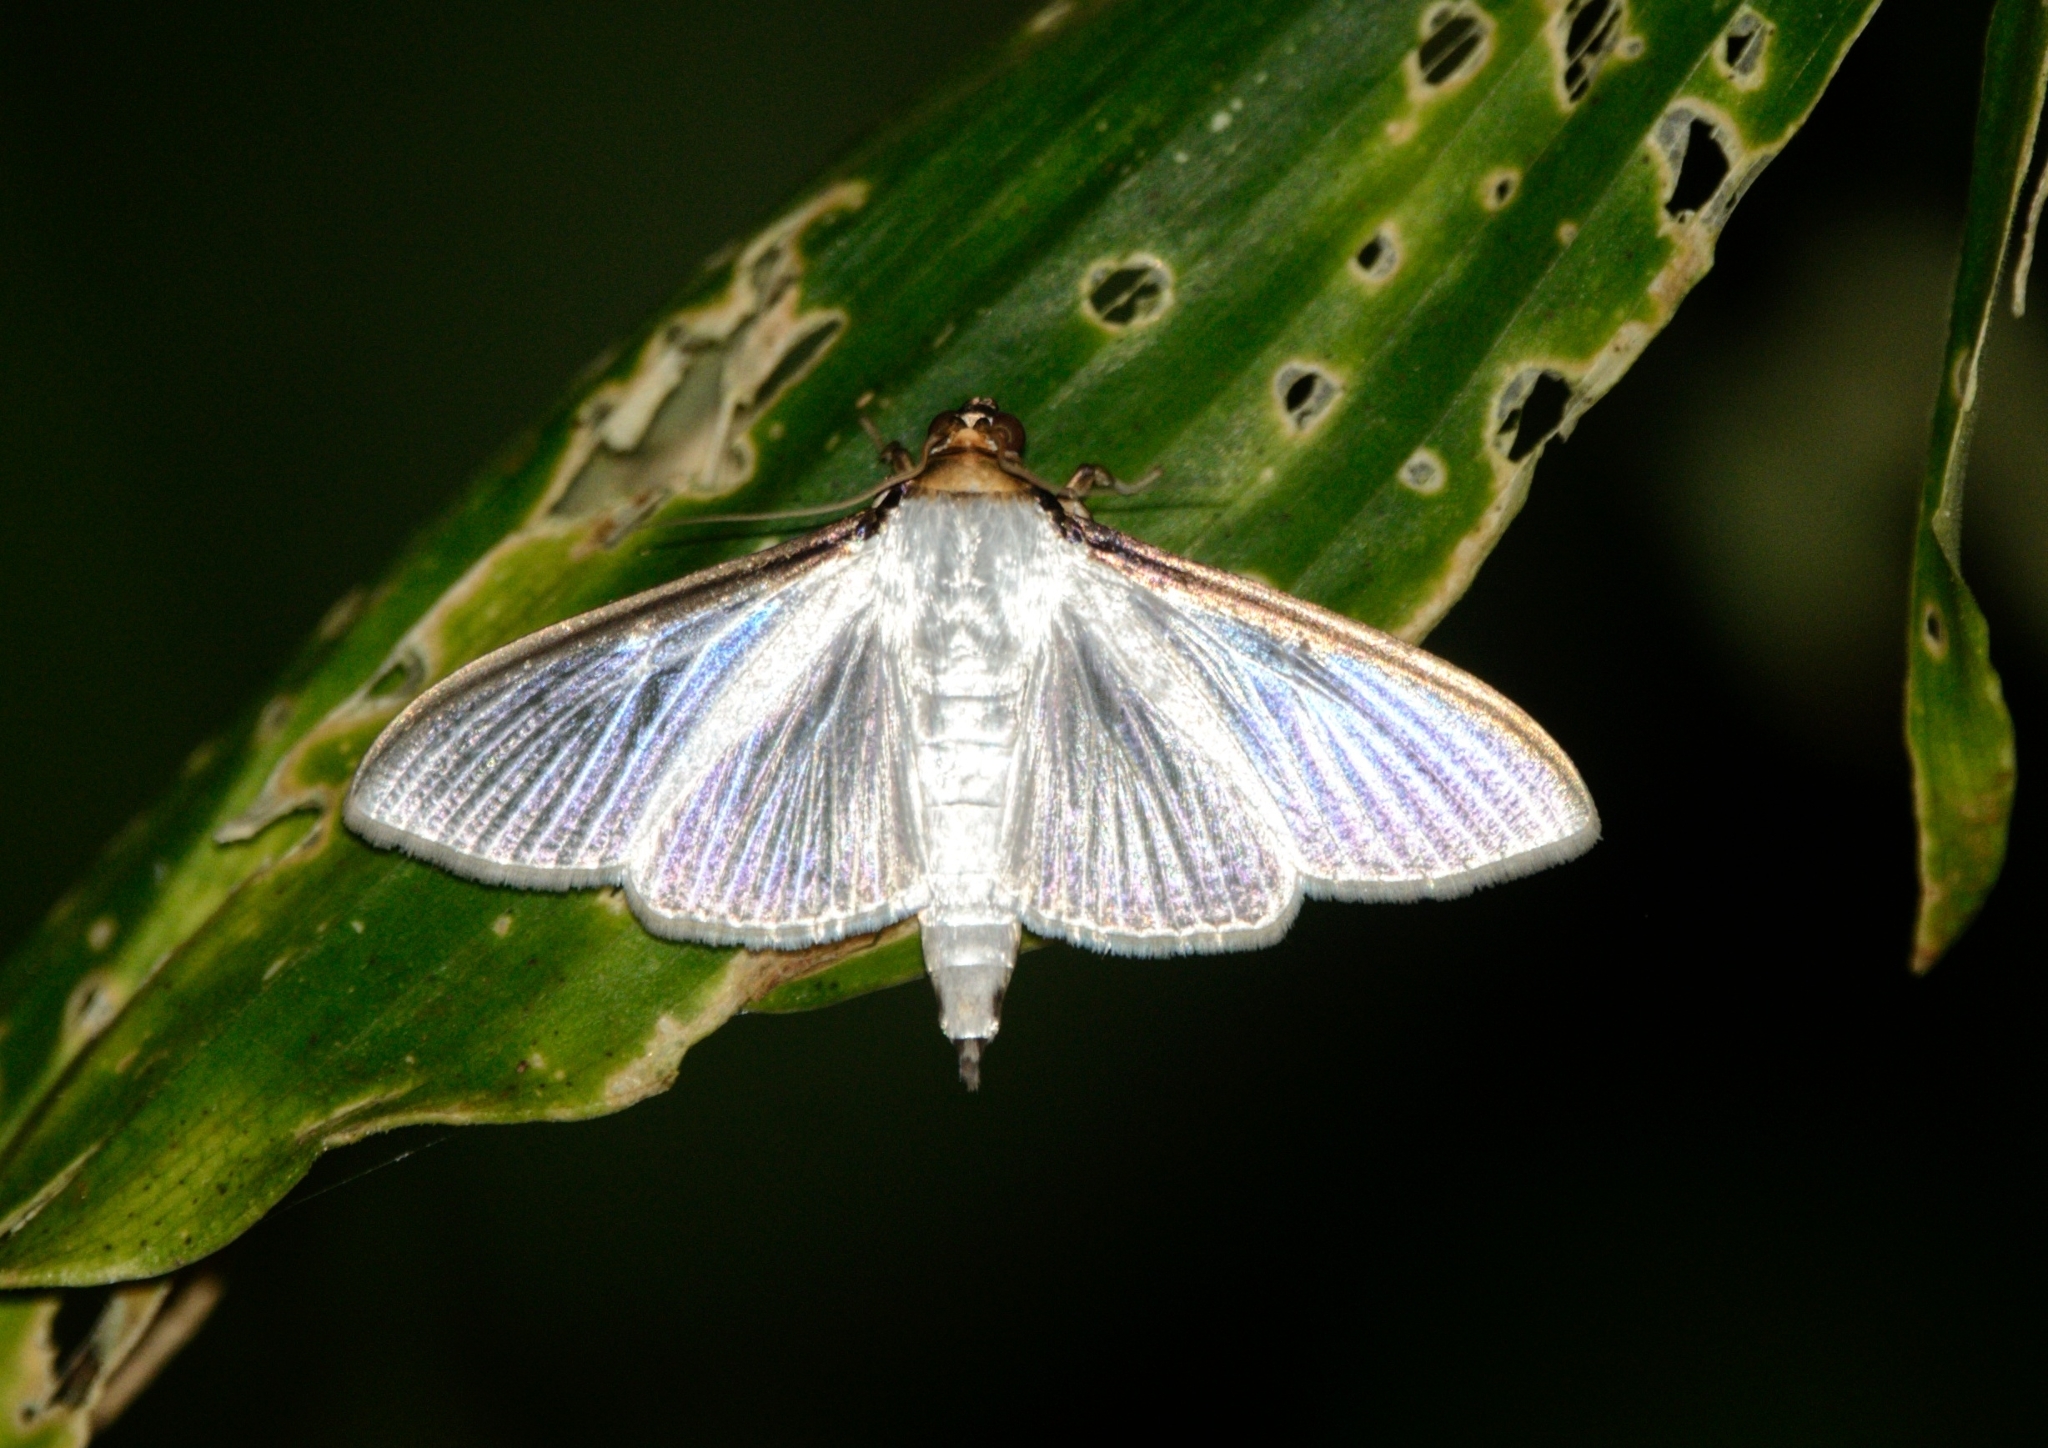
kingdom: Animalia
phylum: Arthropoda
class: Insecta
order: Lepidoptera
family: Crambidae
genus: Cydalima
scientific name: Cydalima laticostalis
